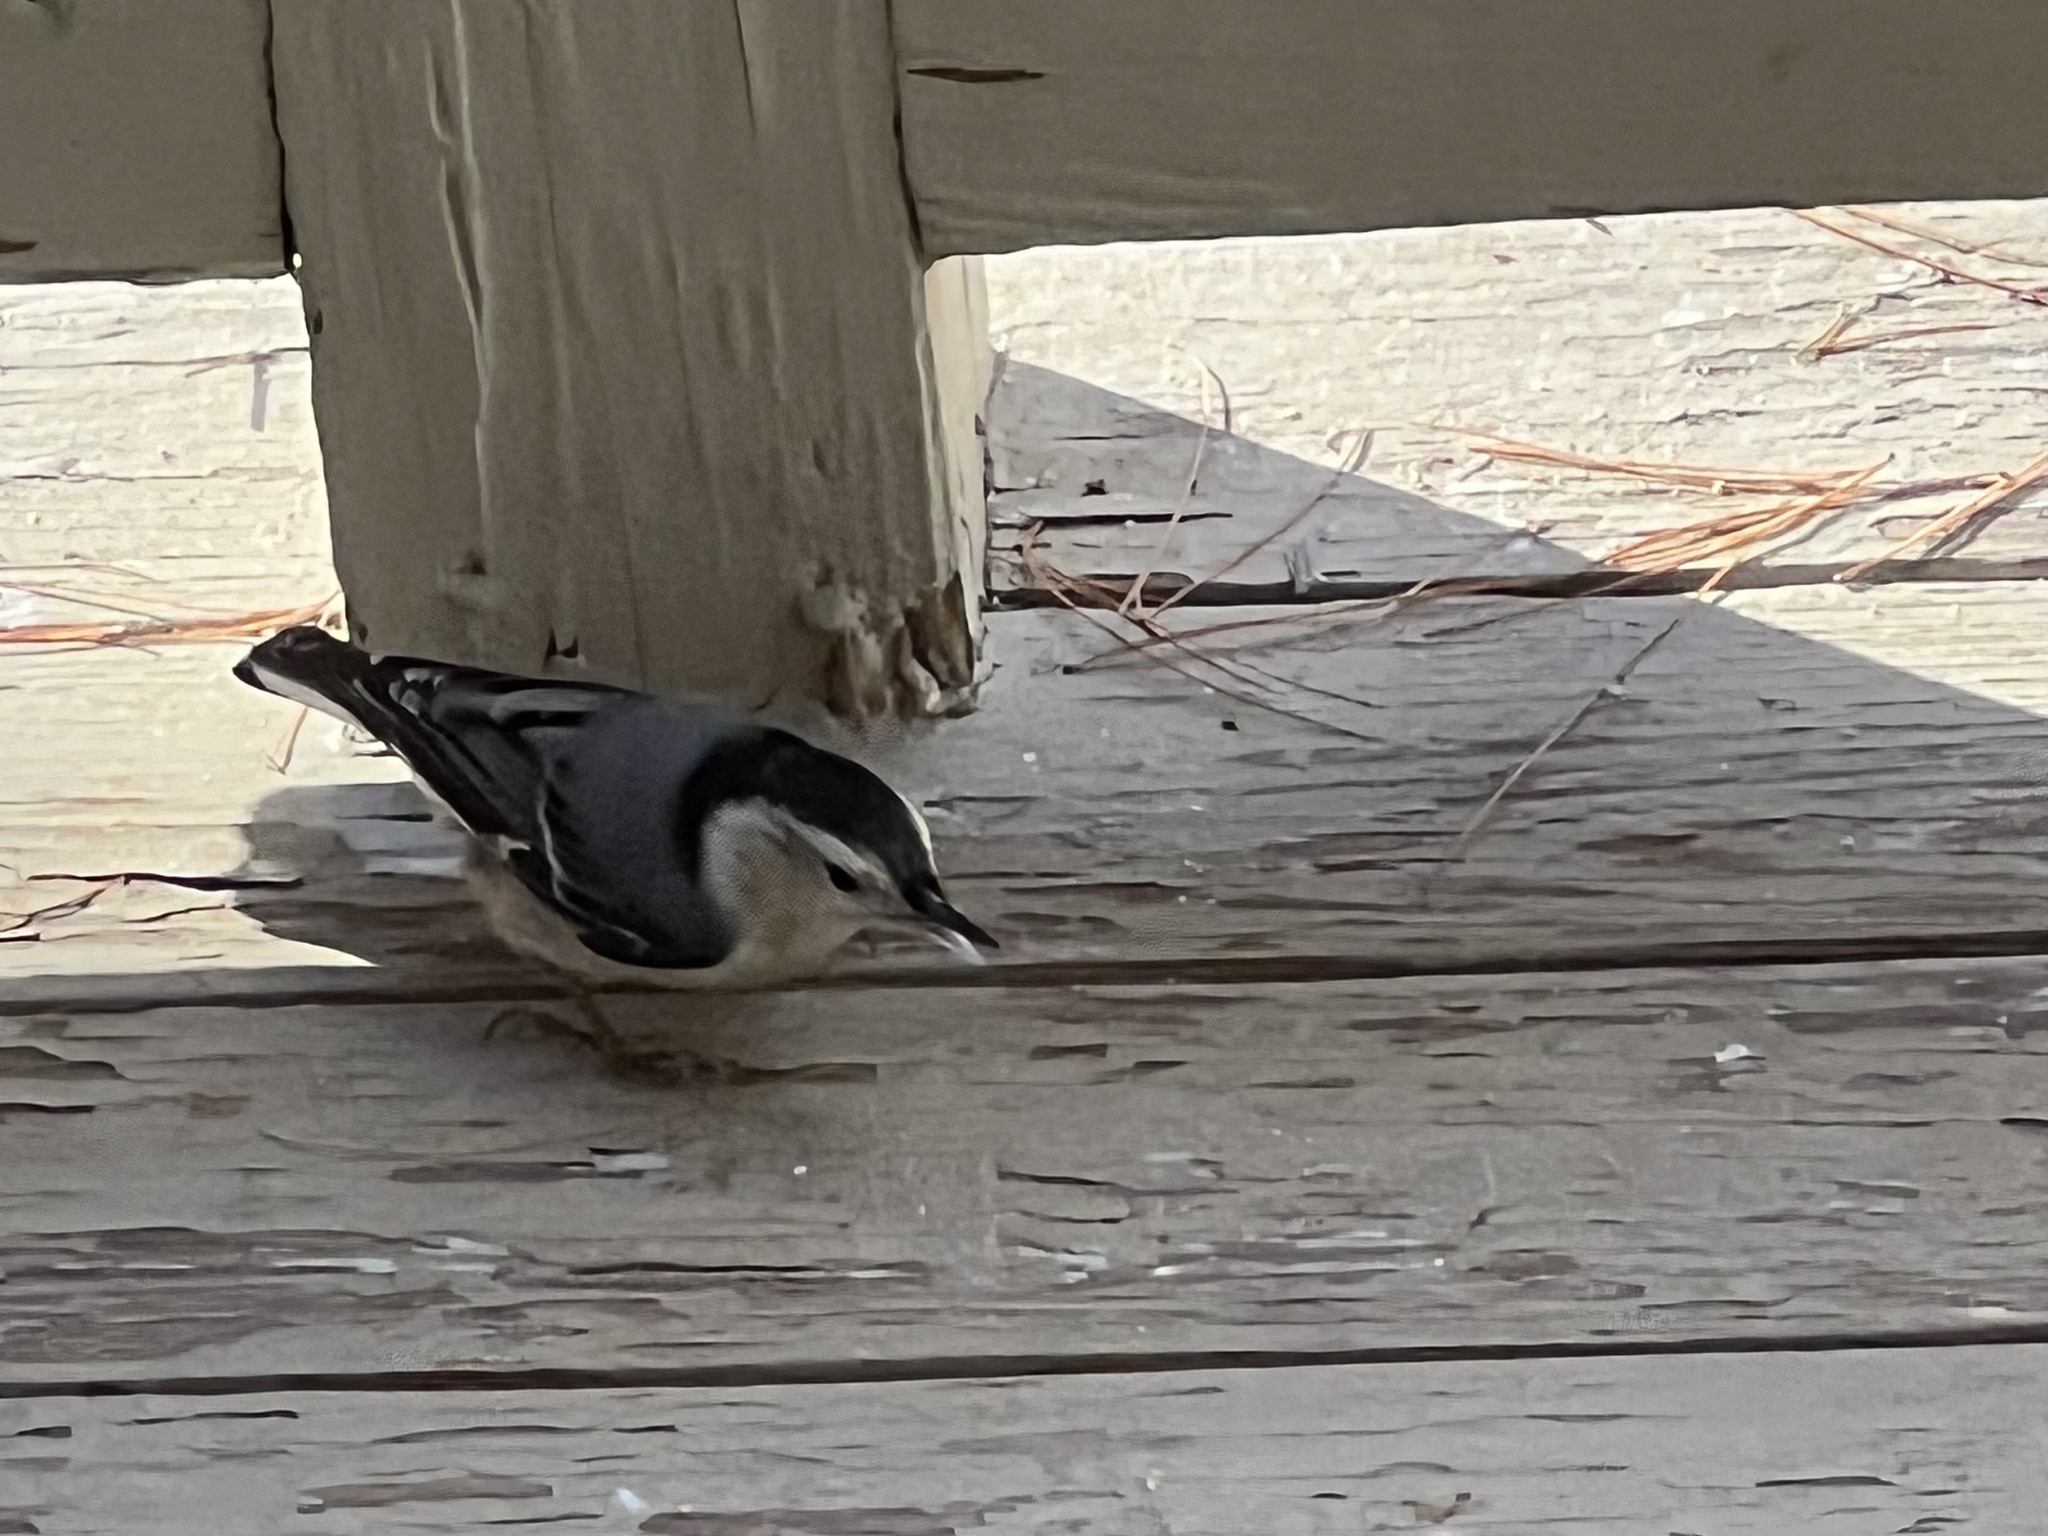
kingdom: Animalia
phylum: Chordata
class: Aves
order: Passeriformes
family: Sittidae
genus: Sitta
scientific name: Sitta carolinensis
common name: White-breasted nuthatch
